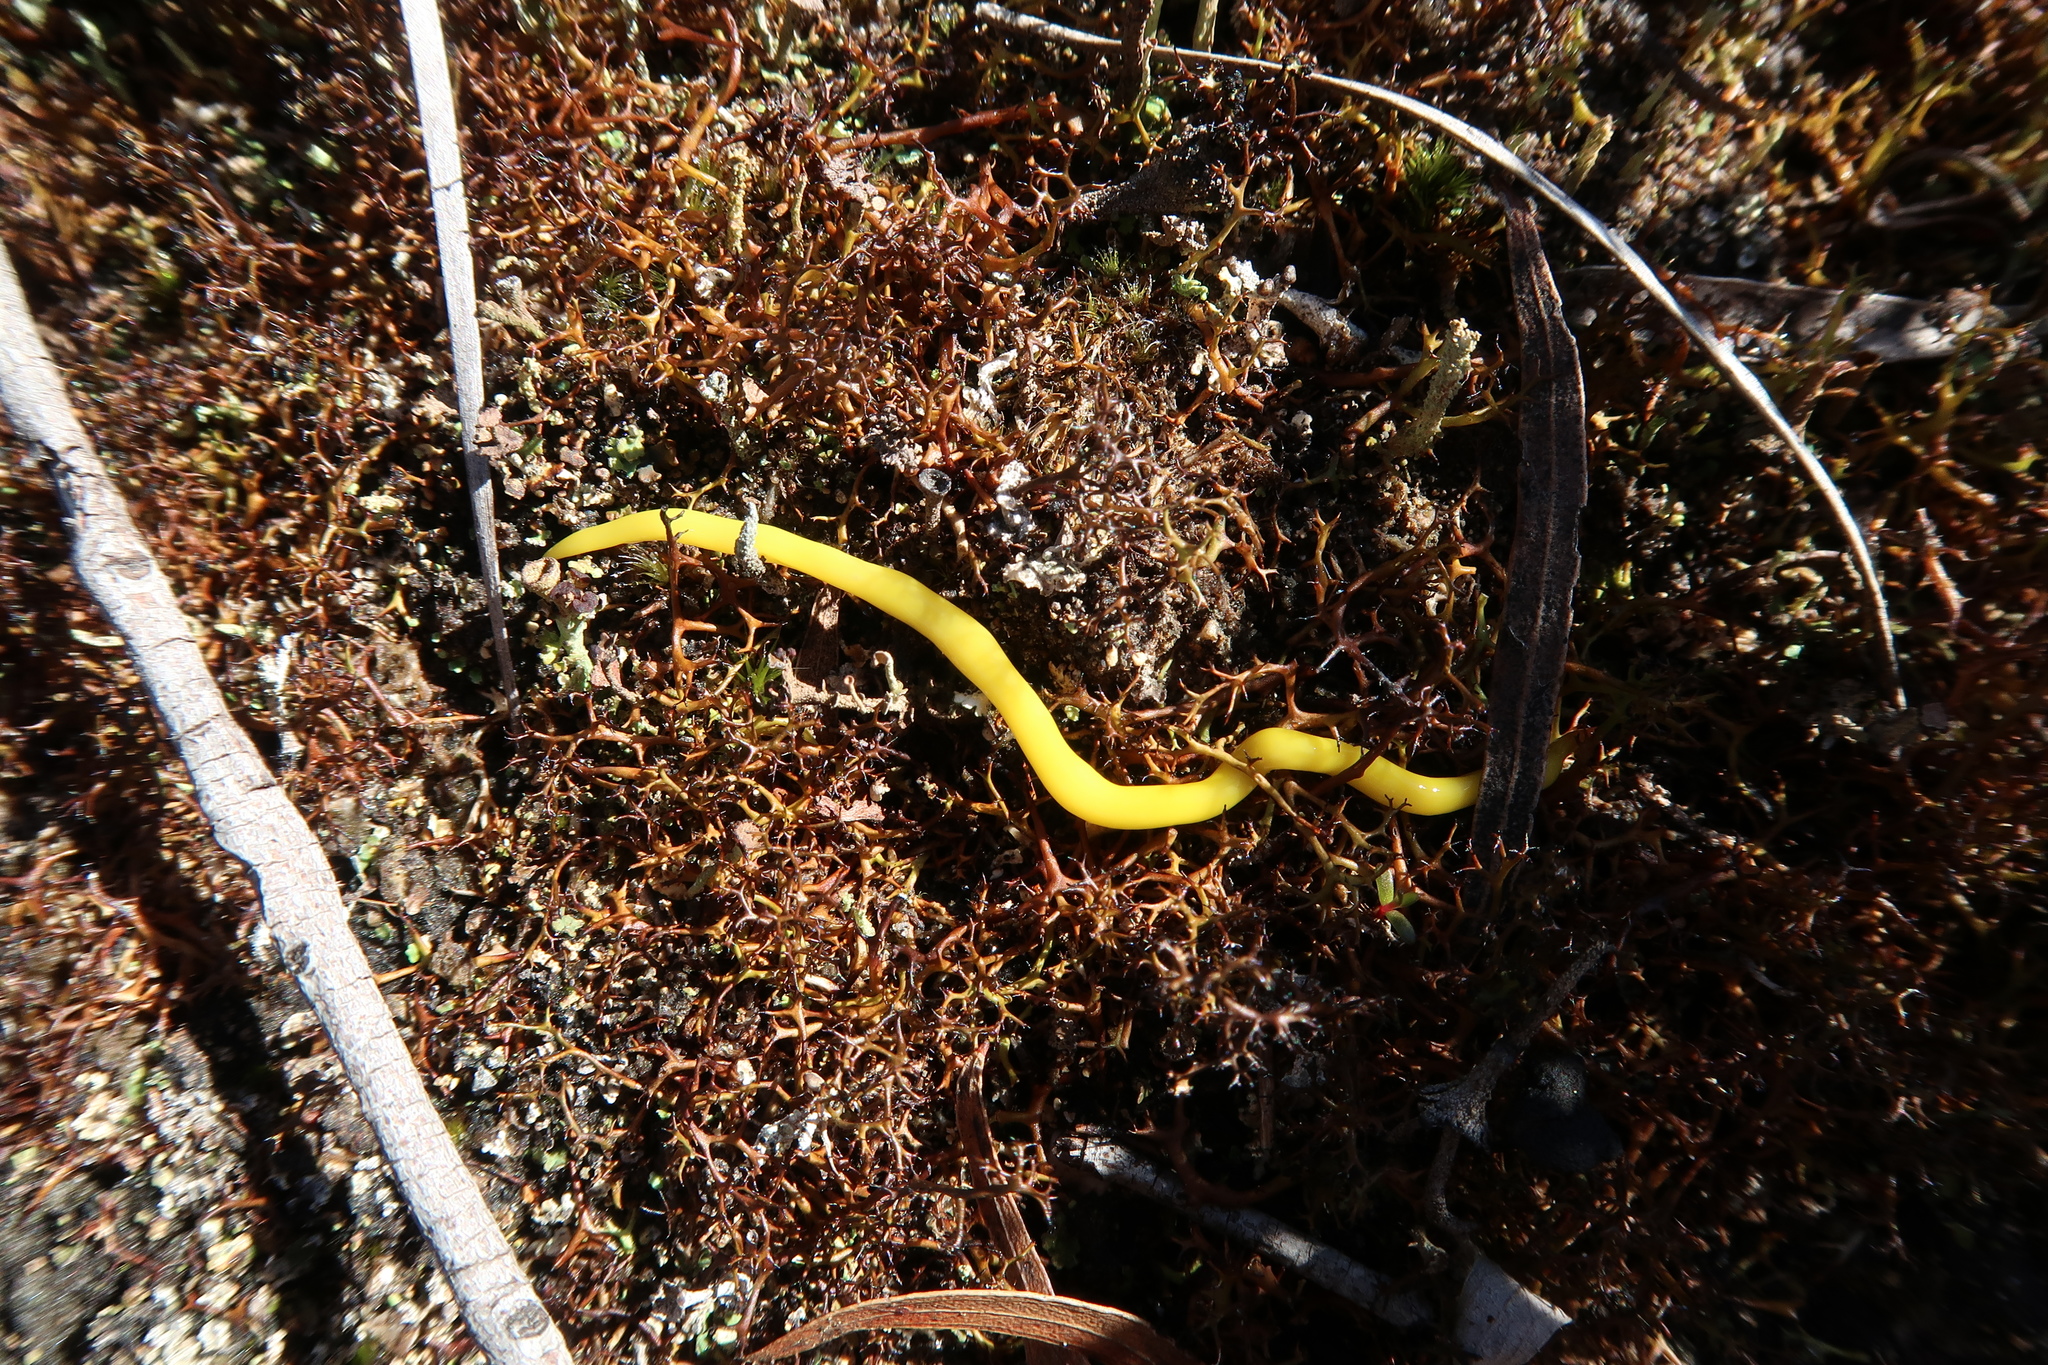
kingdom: Animalia
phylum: Platyhelminthes
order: Tricladida
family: Geoplanidae
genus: Fletchamia
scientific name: Fletchamia sugdeni
